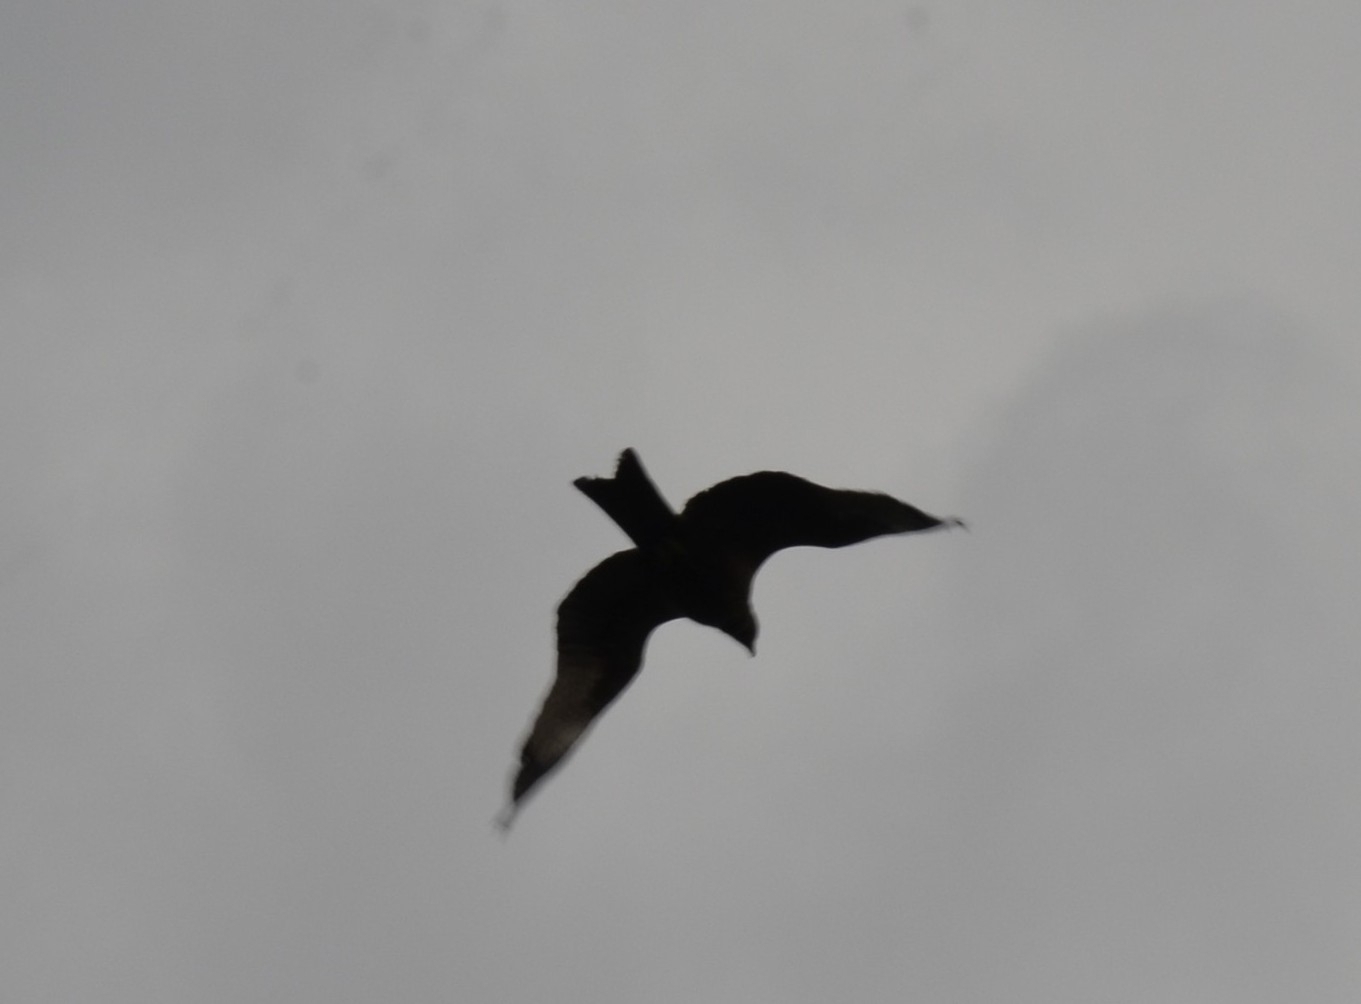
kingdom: Animalia
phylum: Chordata
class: Aves
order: Accipitriformes
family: Accipitridae
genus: Milvus
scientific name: Milvus migrans
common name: Black kite
